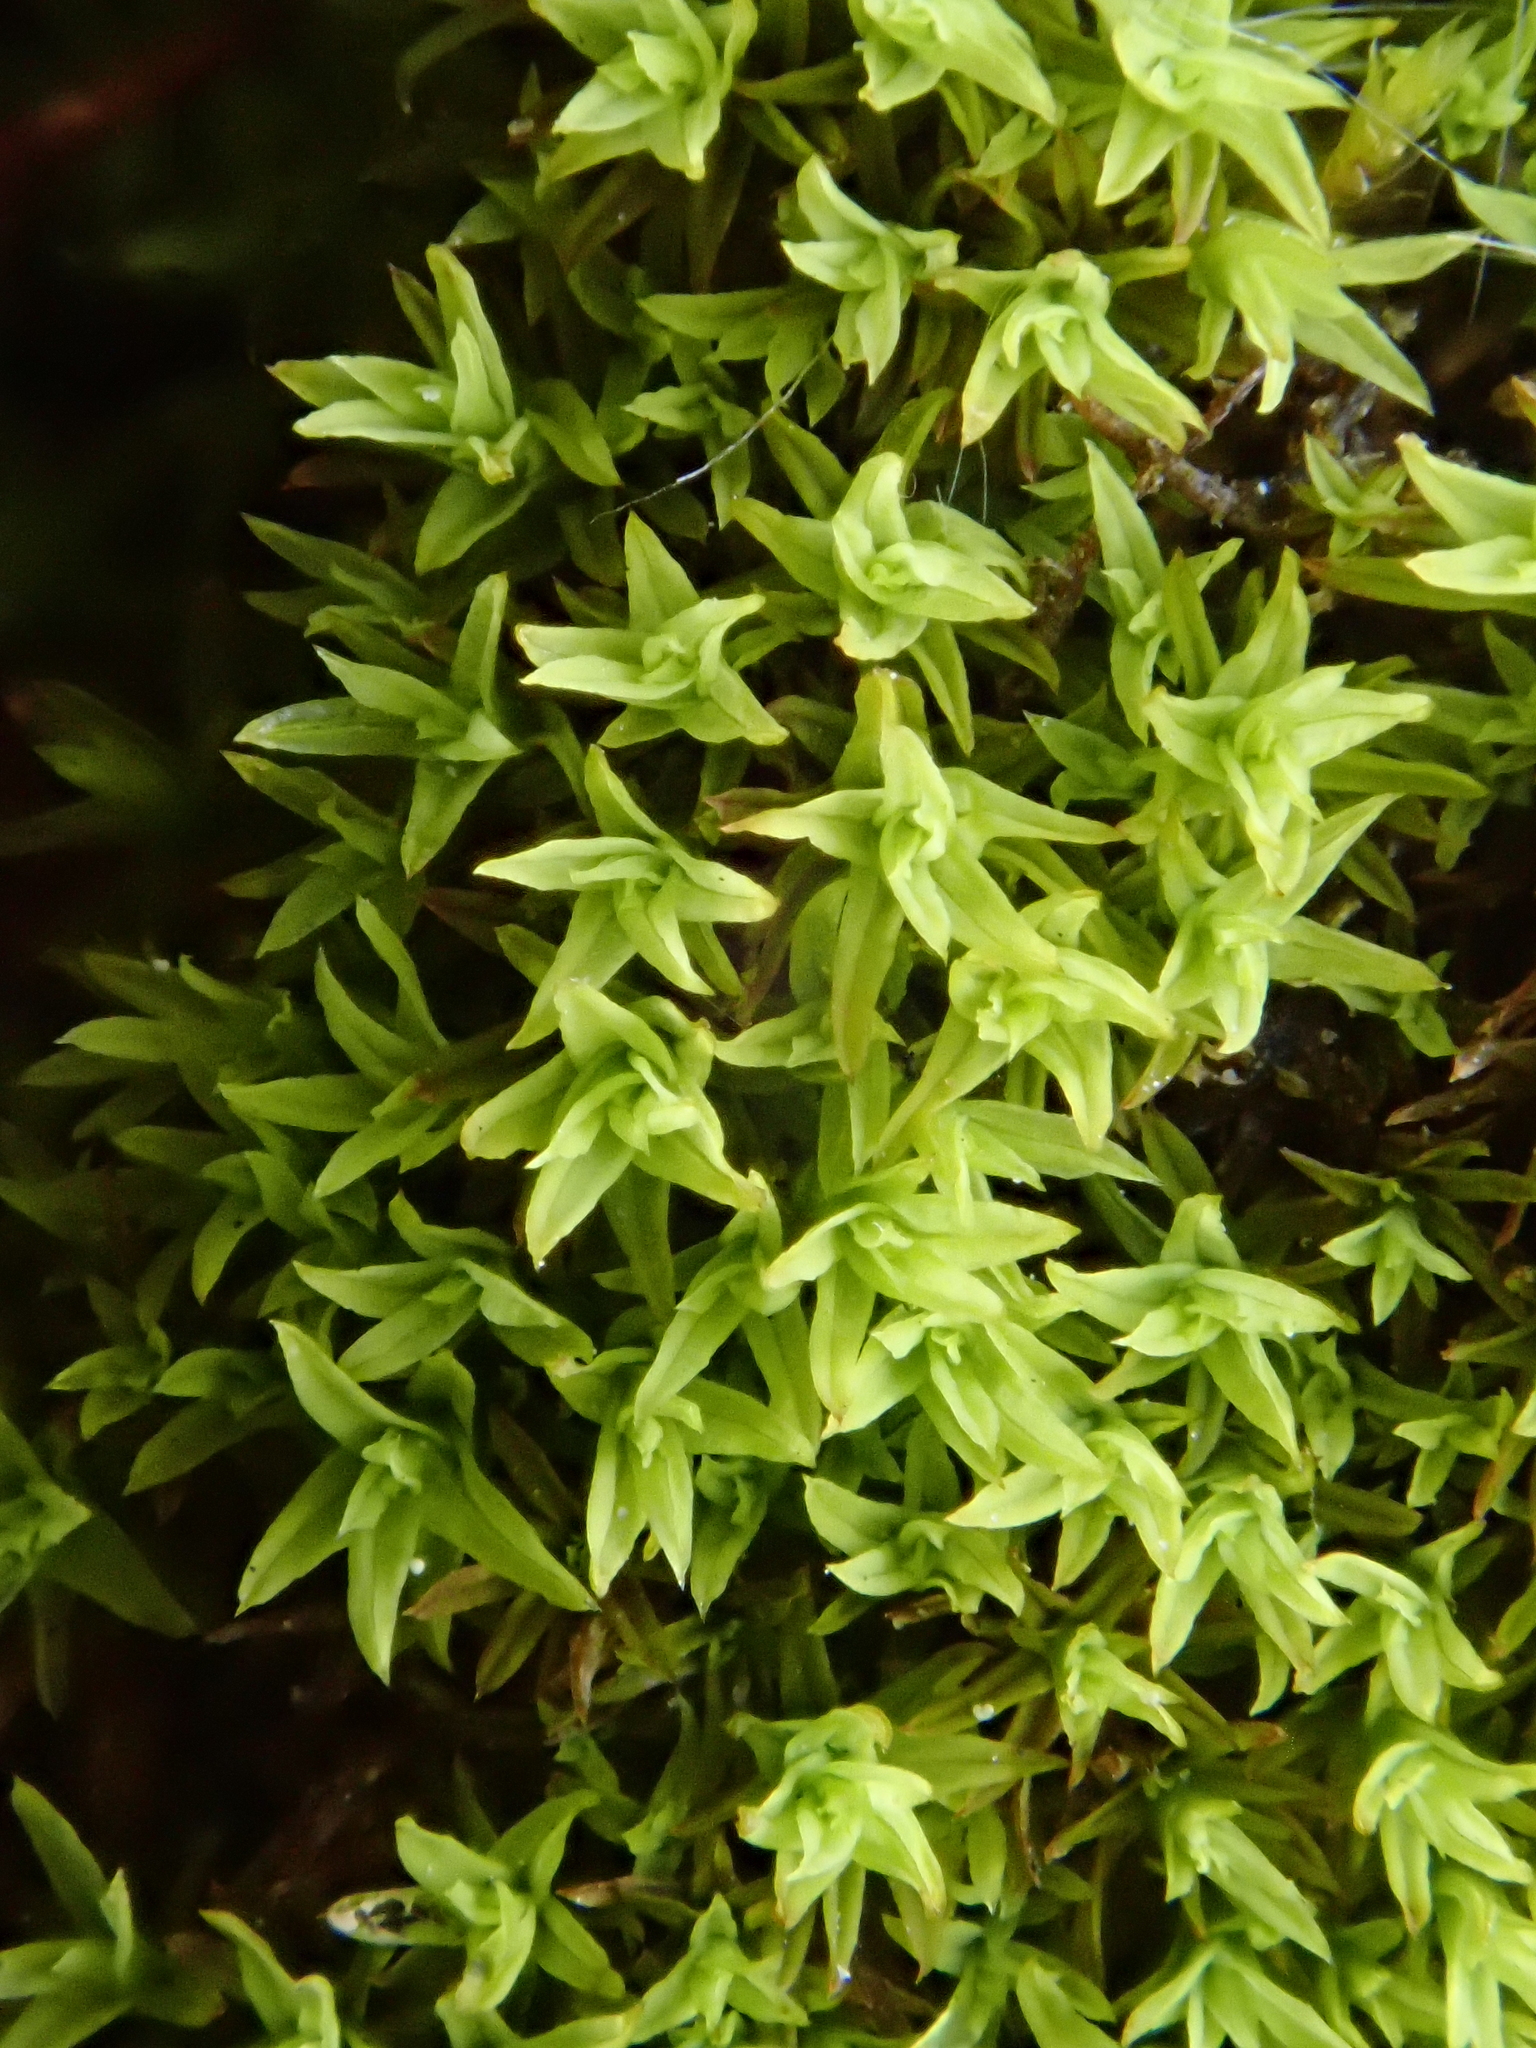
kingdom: Plantae
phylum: Bryophyta
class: Bryopsida
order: Pottiales
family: Pottiaceae
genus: Hydrogonium
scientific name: Hydrogonium croceum
